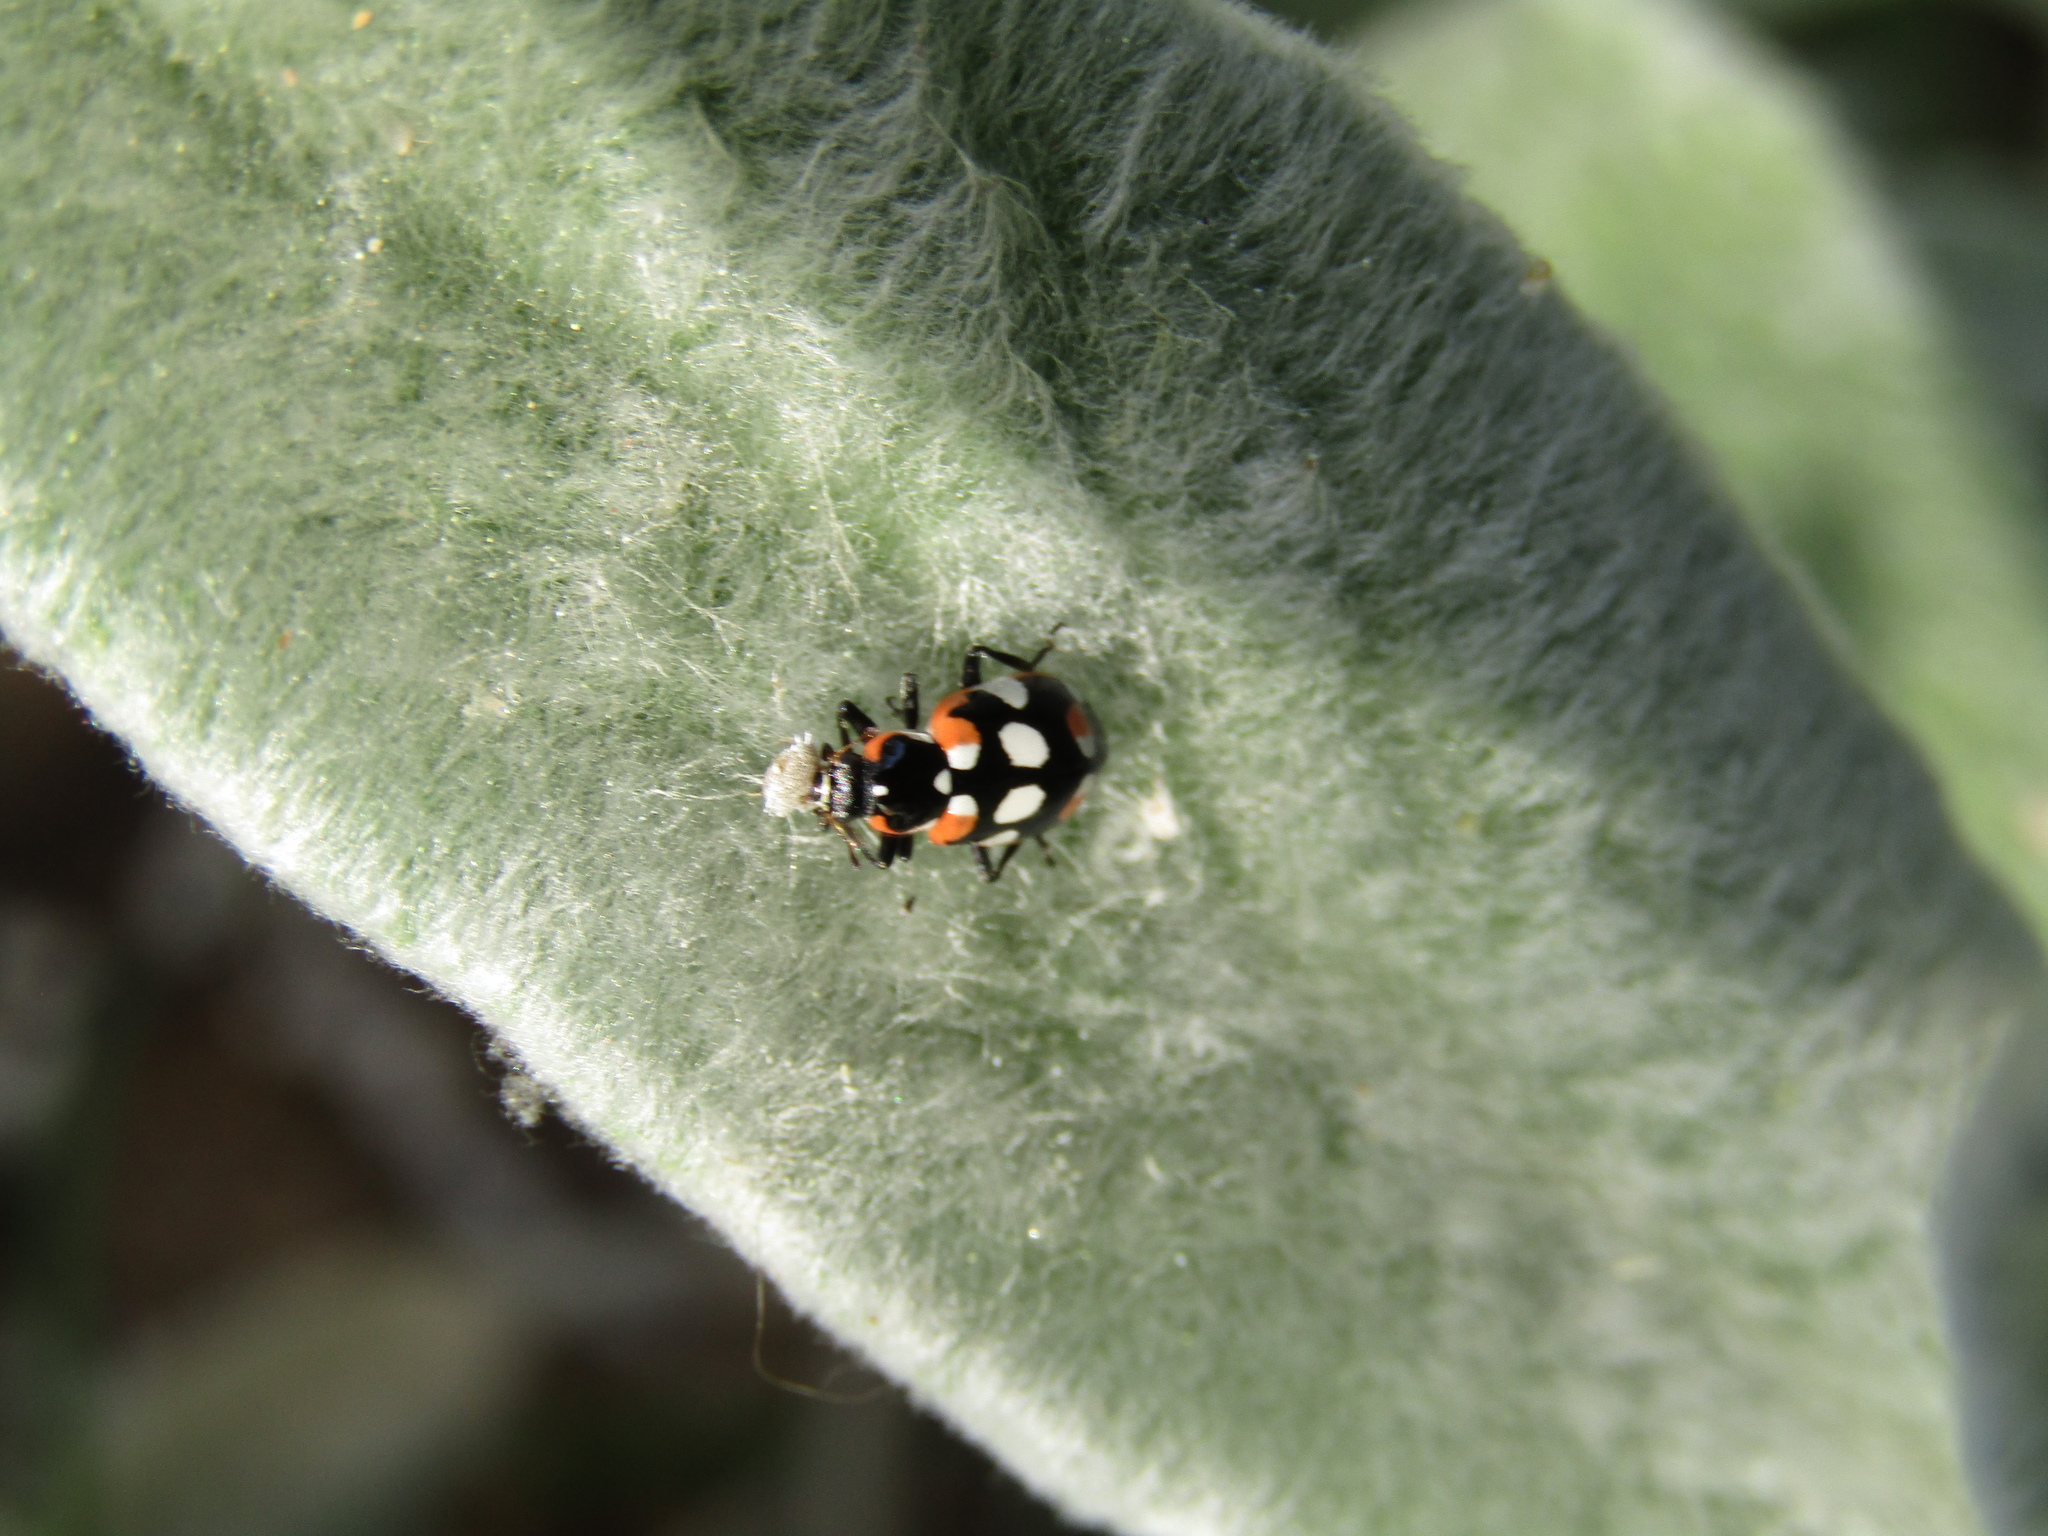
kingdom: Animalia
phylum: Arthropoda
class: Insecta
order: Coleoptera
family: Coccinellidae
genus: Eriopis
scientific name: Eriopis connexa
